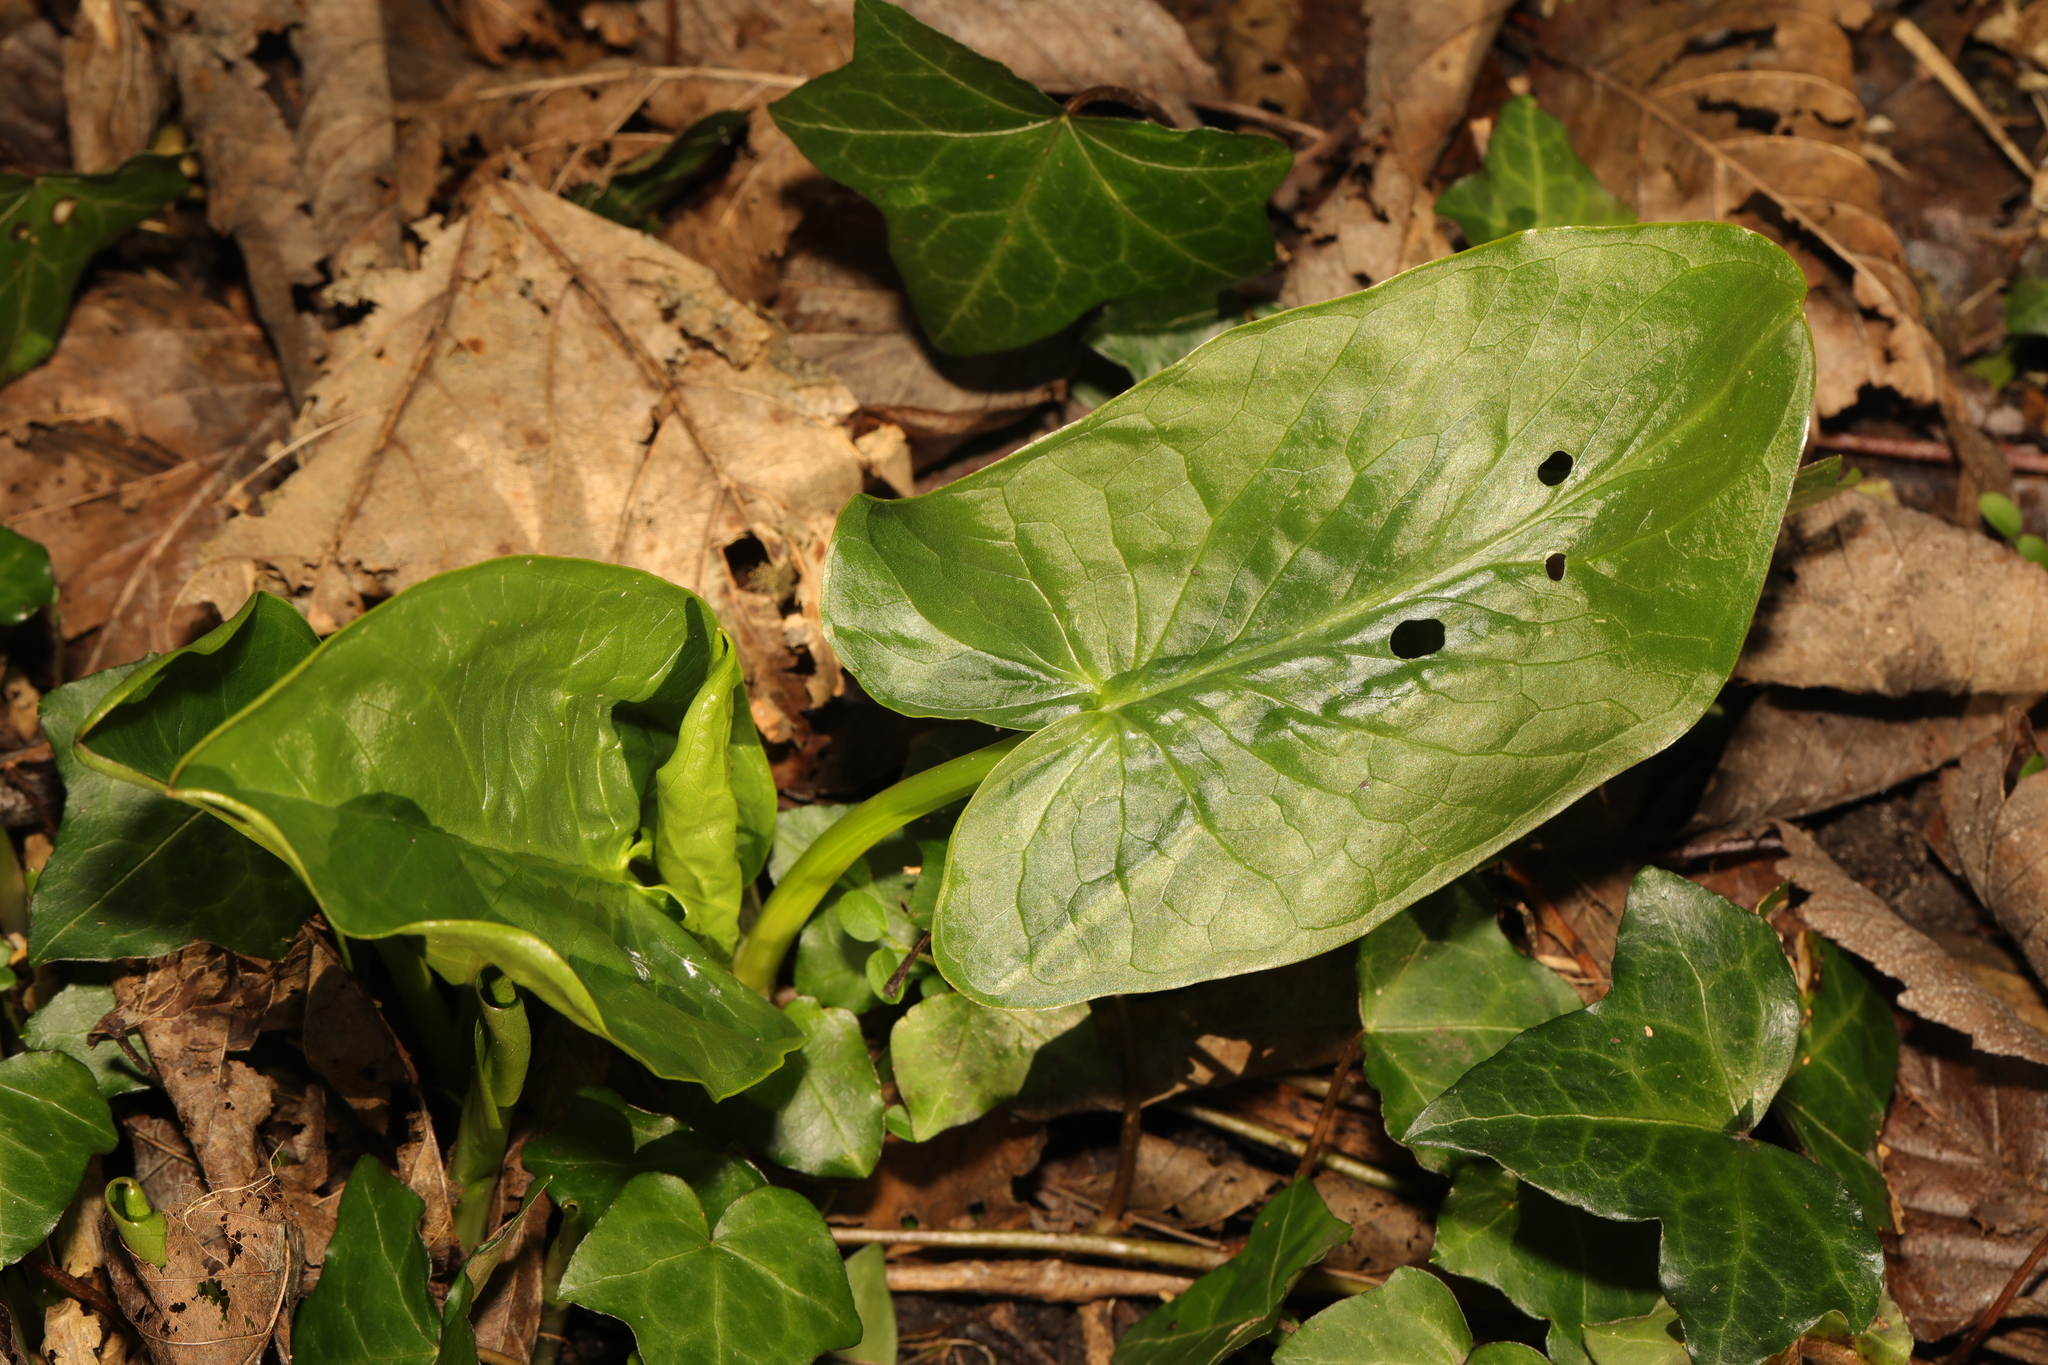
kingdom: Plantae
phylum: Tracheophyta
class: Liliopsida
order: Alismatales
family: Araceae
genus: Arum
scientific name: Arum maculatum
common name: Lords-and-ladies
